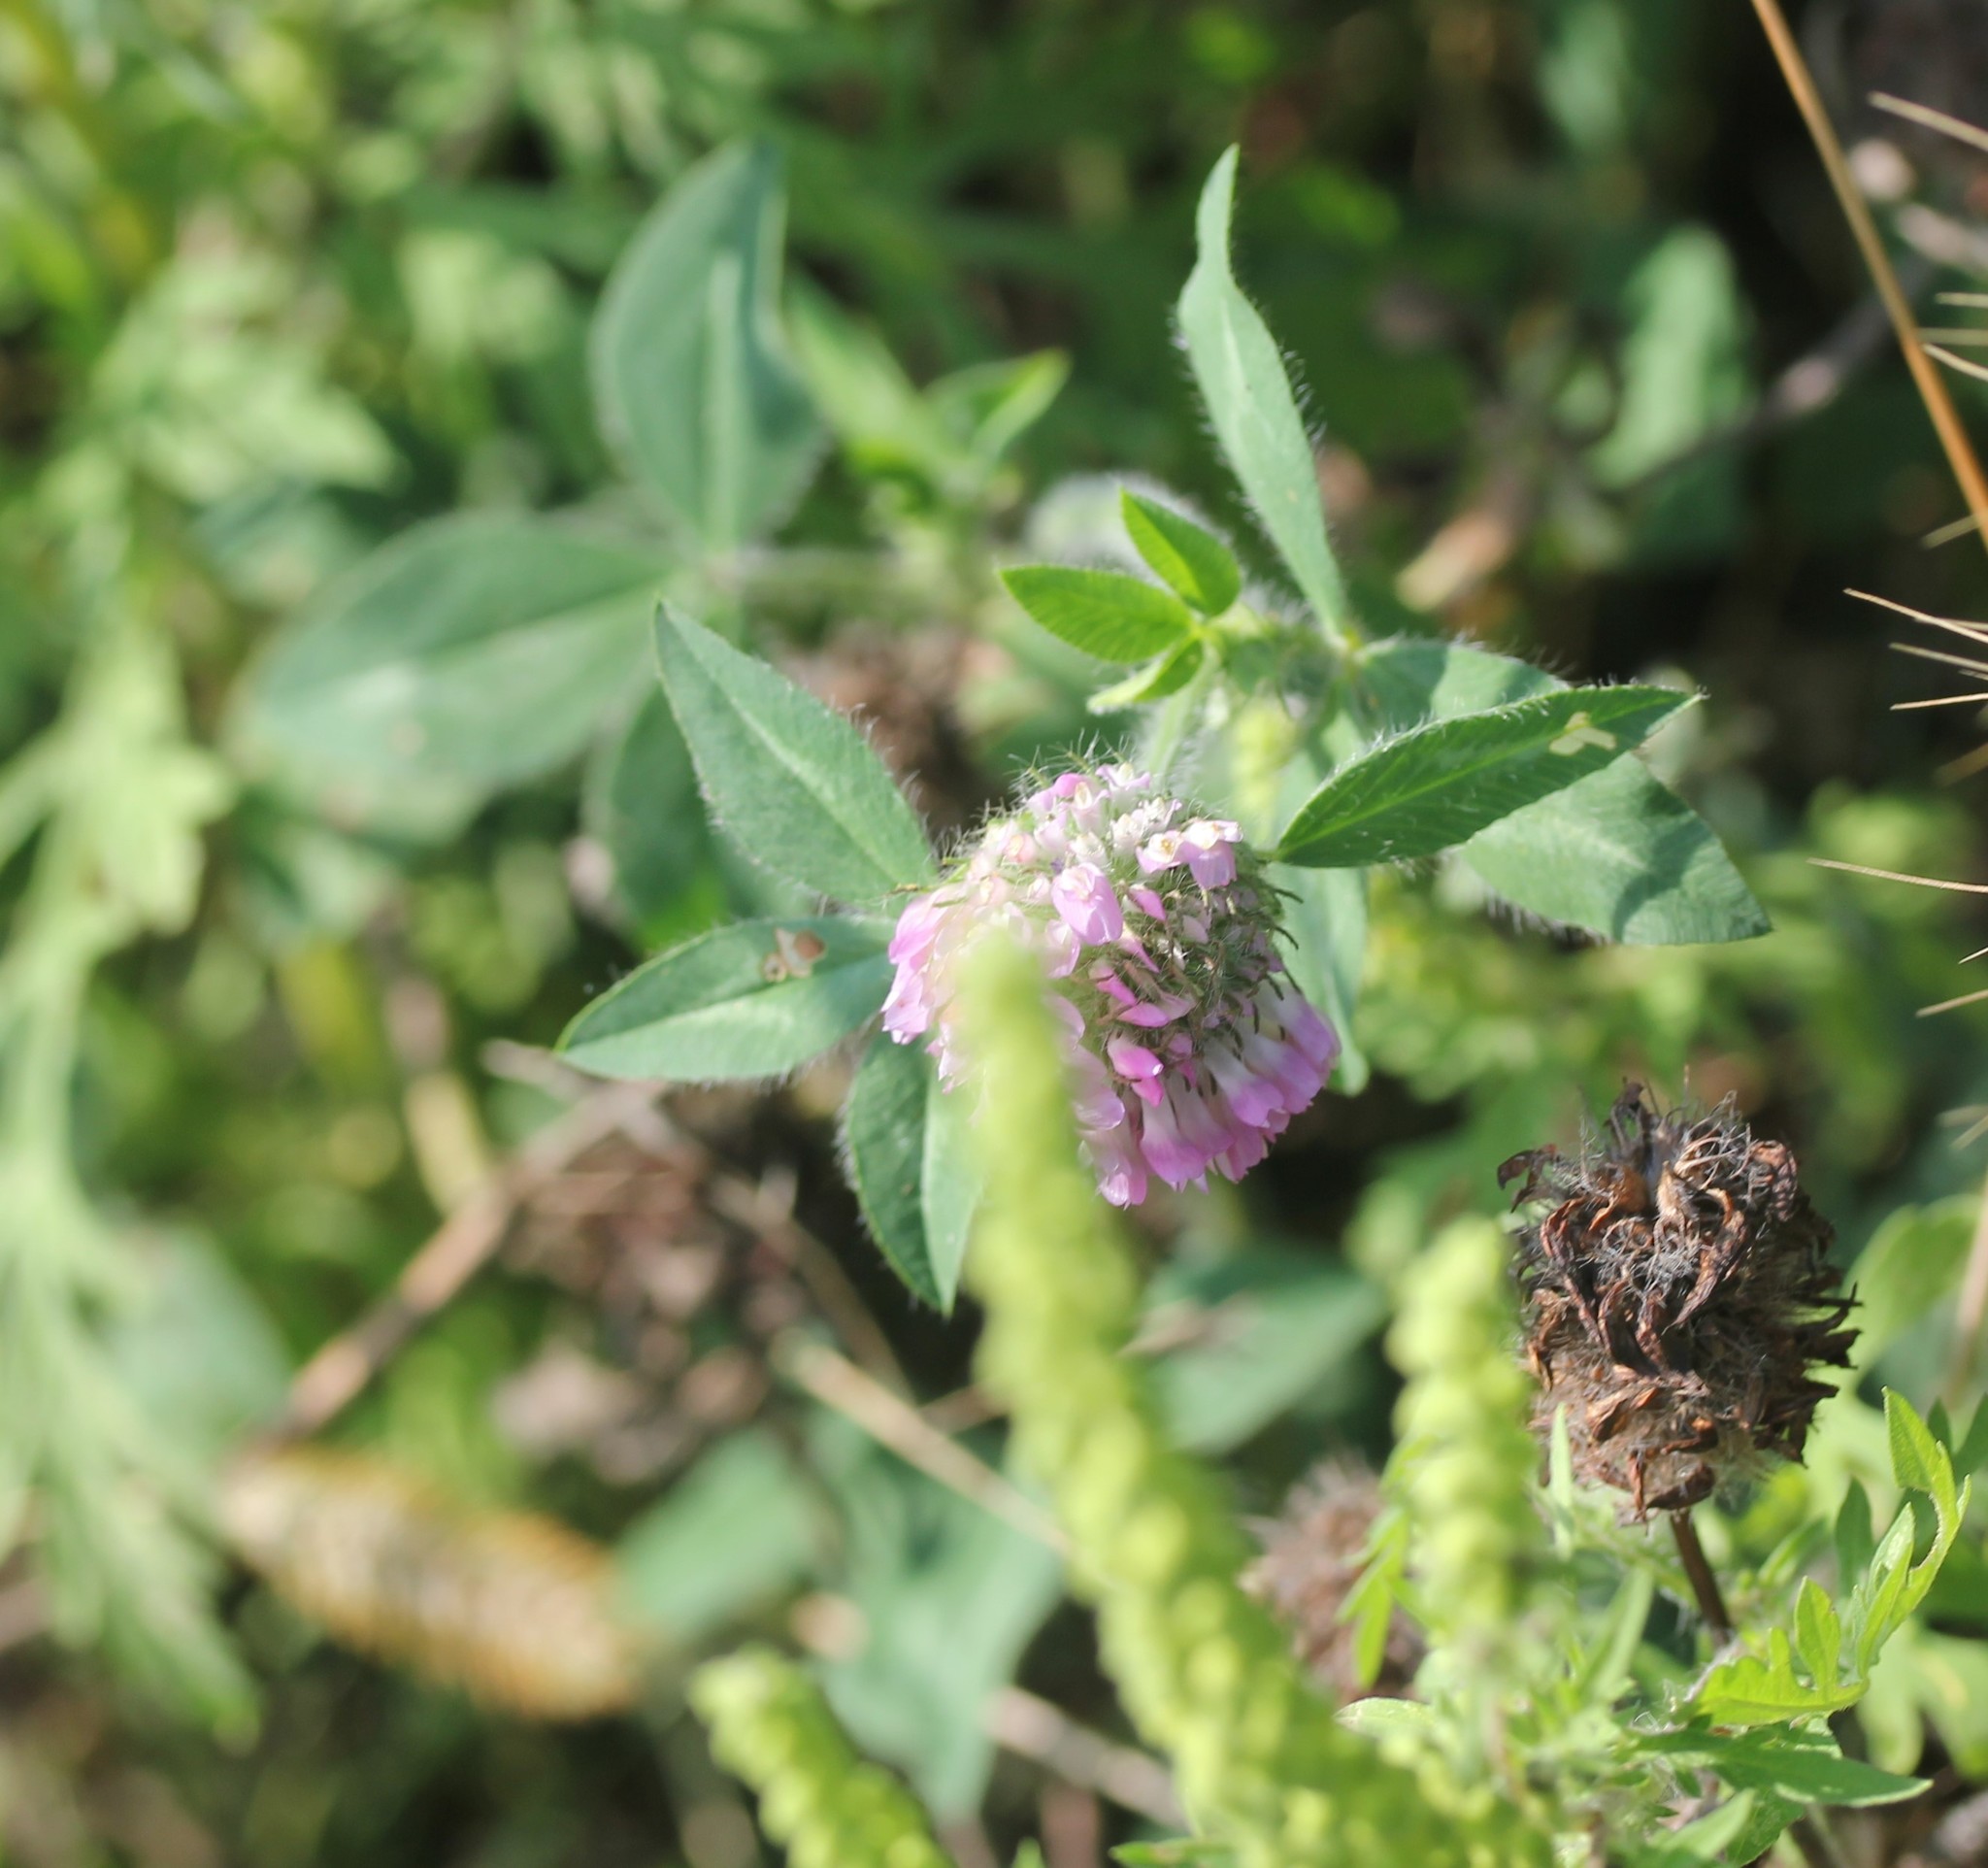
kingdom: Plantae
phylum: Tracheophyta
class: Magnoliopsida
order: Fabales
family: Fabaceae
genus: Trifolium
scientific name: Trifolium pratense
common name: Red clover
